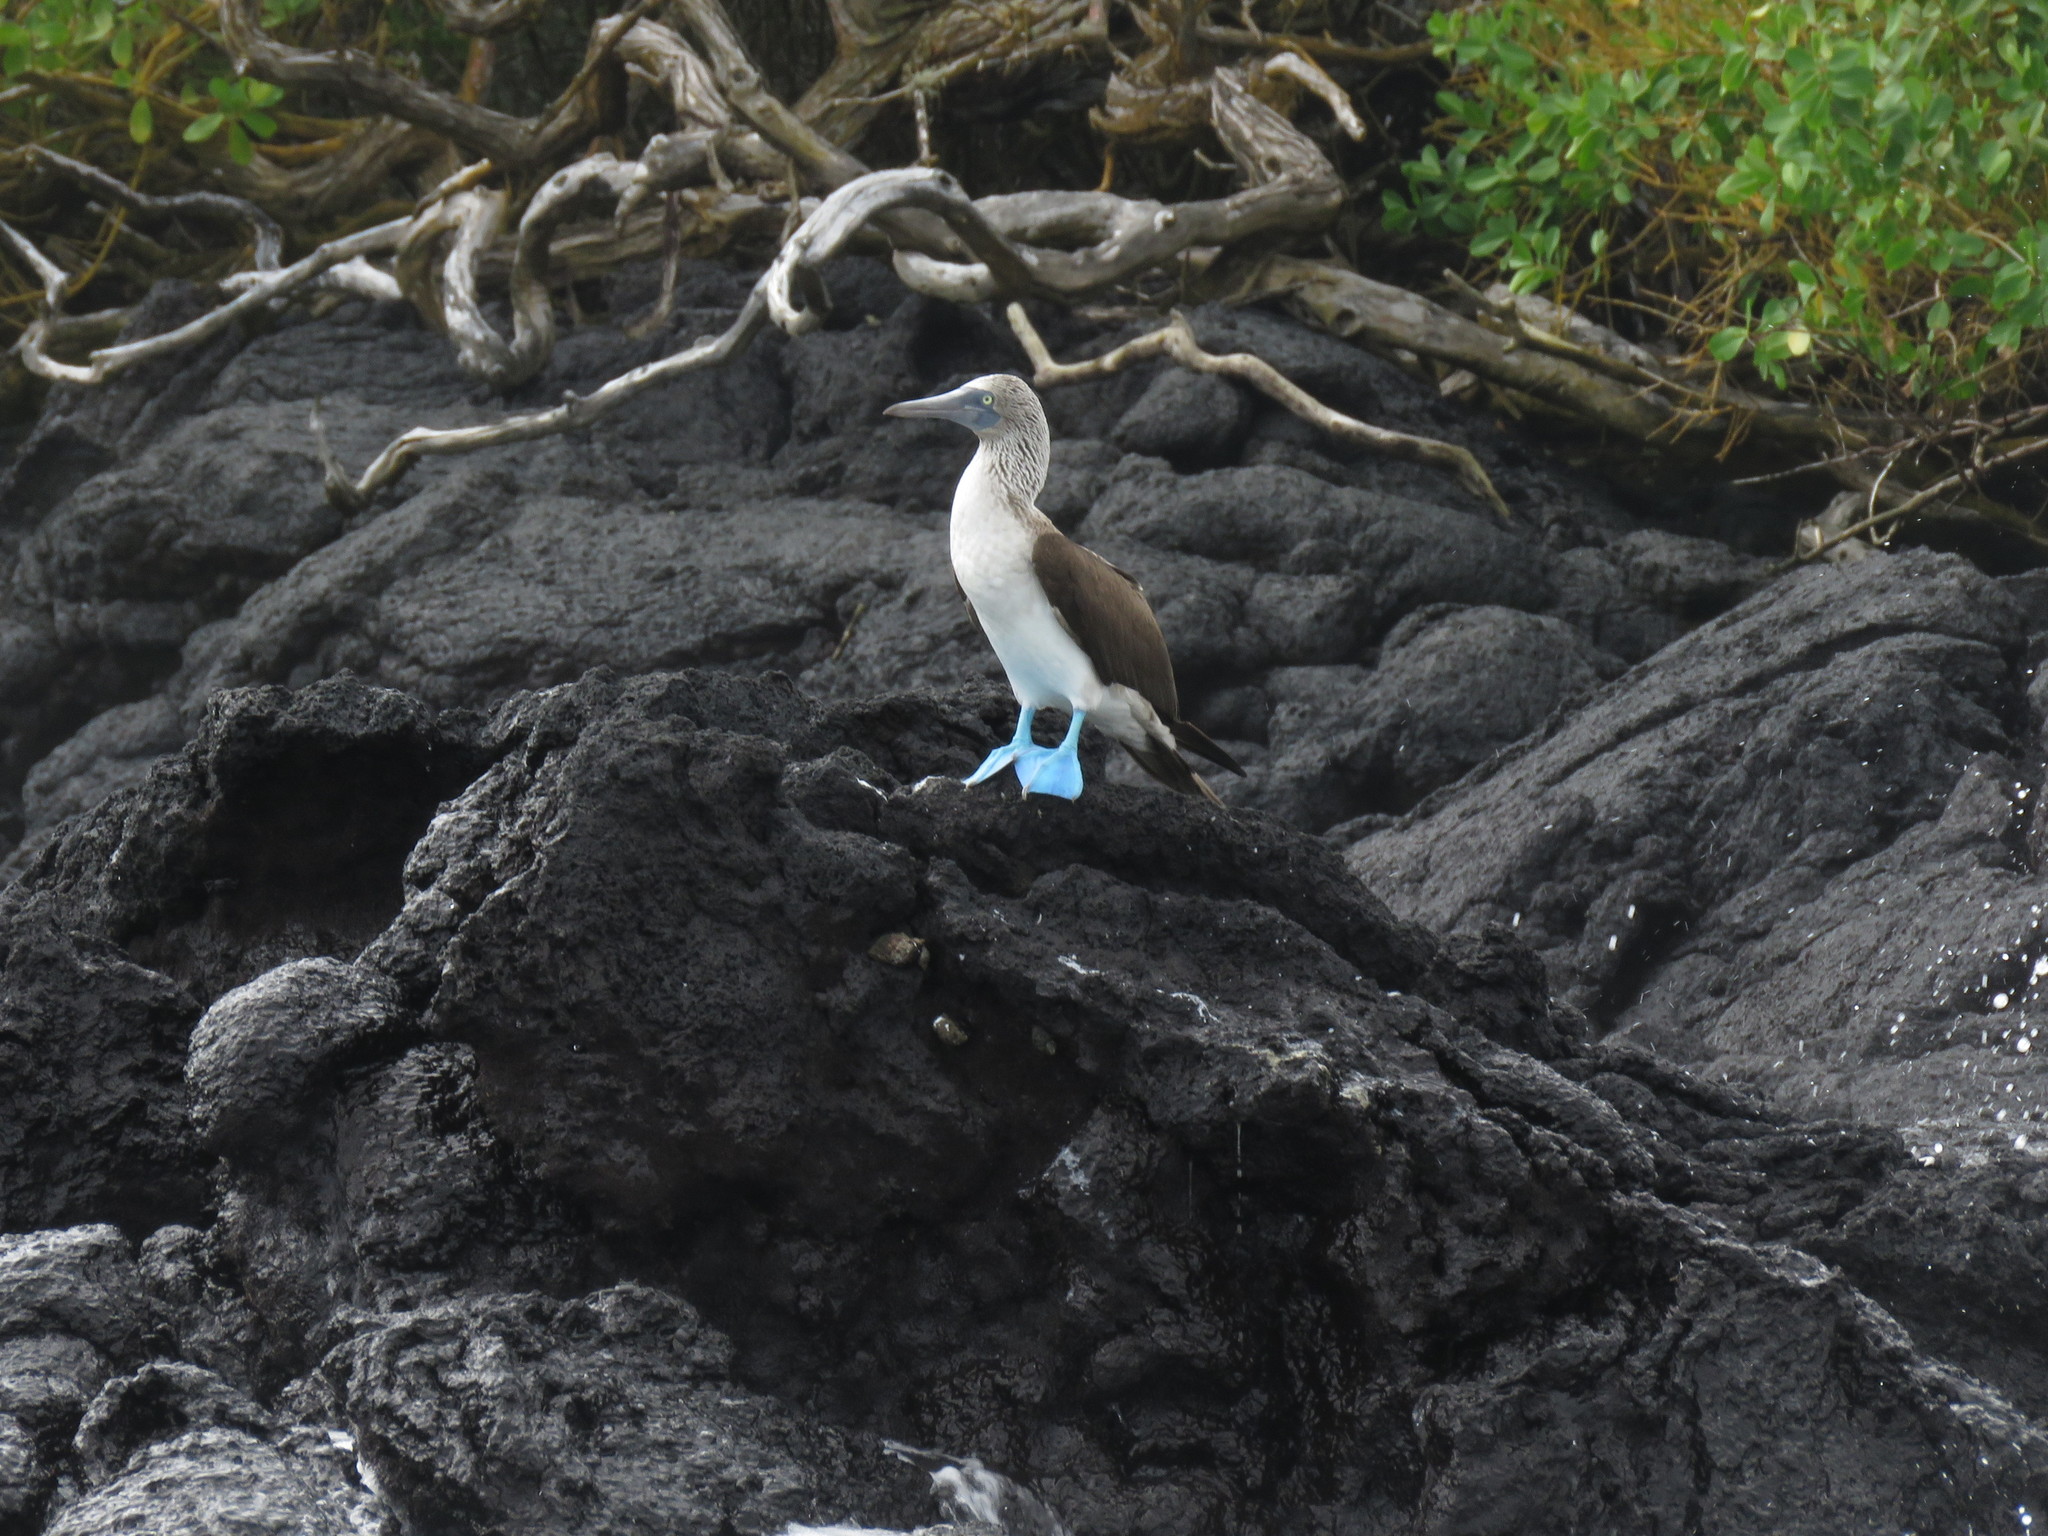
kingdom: Animalia
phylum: Chordata
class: Aves
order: Suliformes
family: Sulidae
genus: Sula
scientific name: Sula nebouxii
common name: Blue-footed booby
